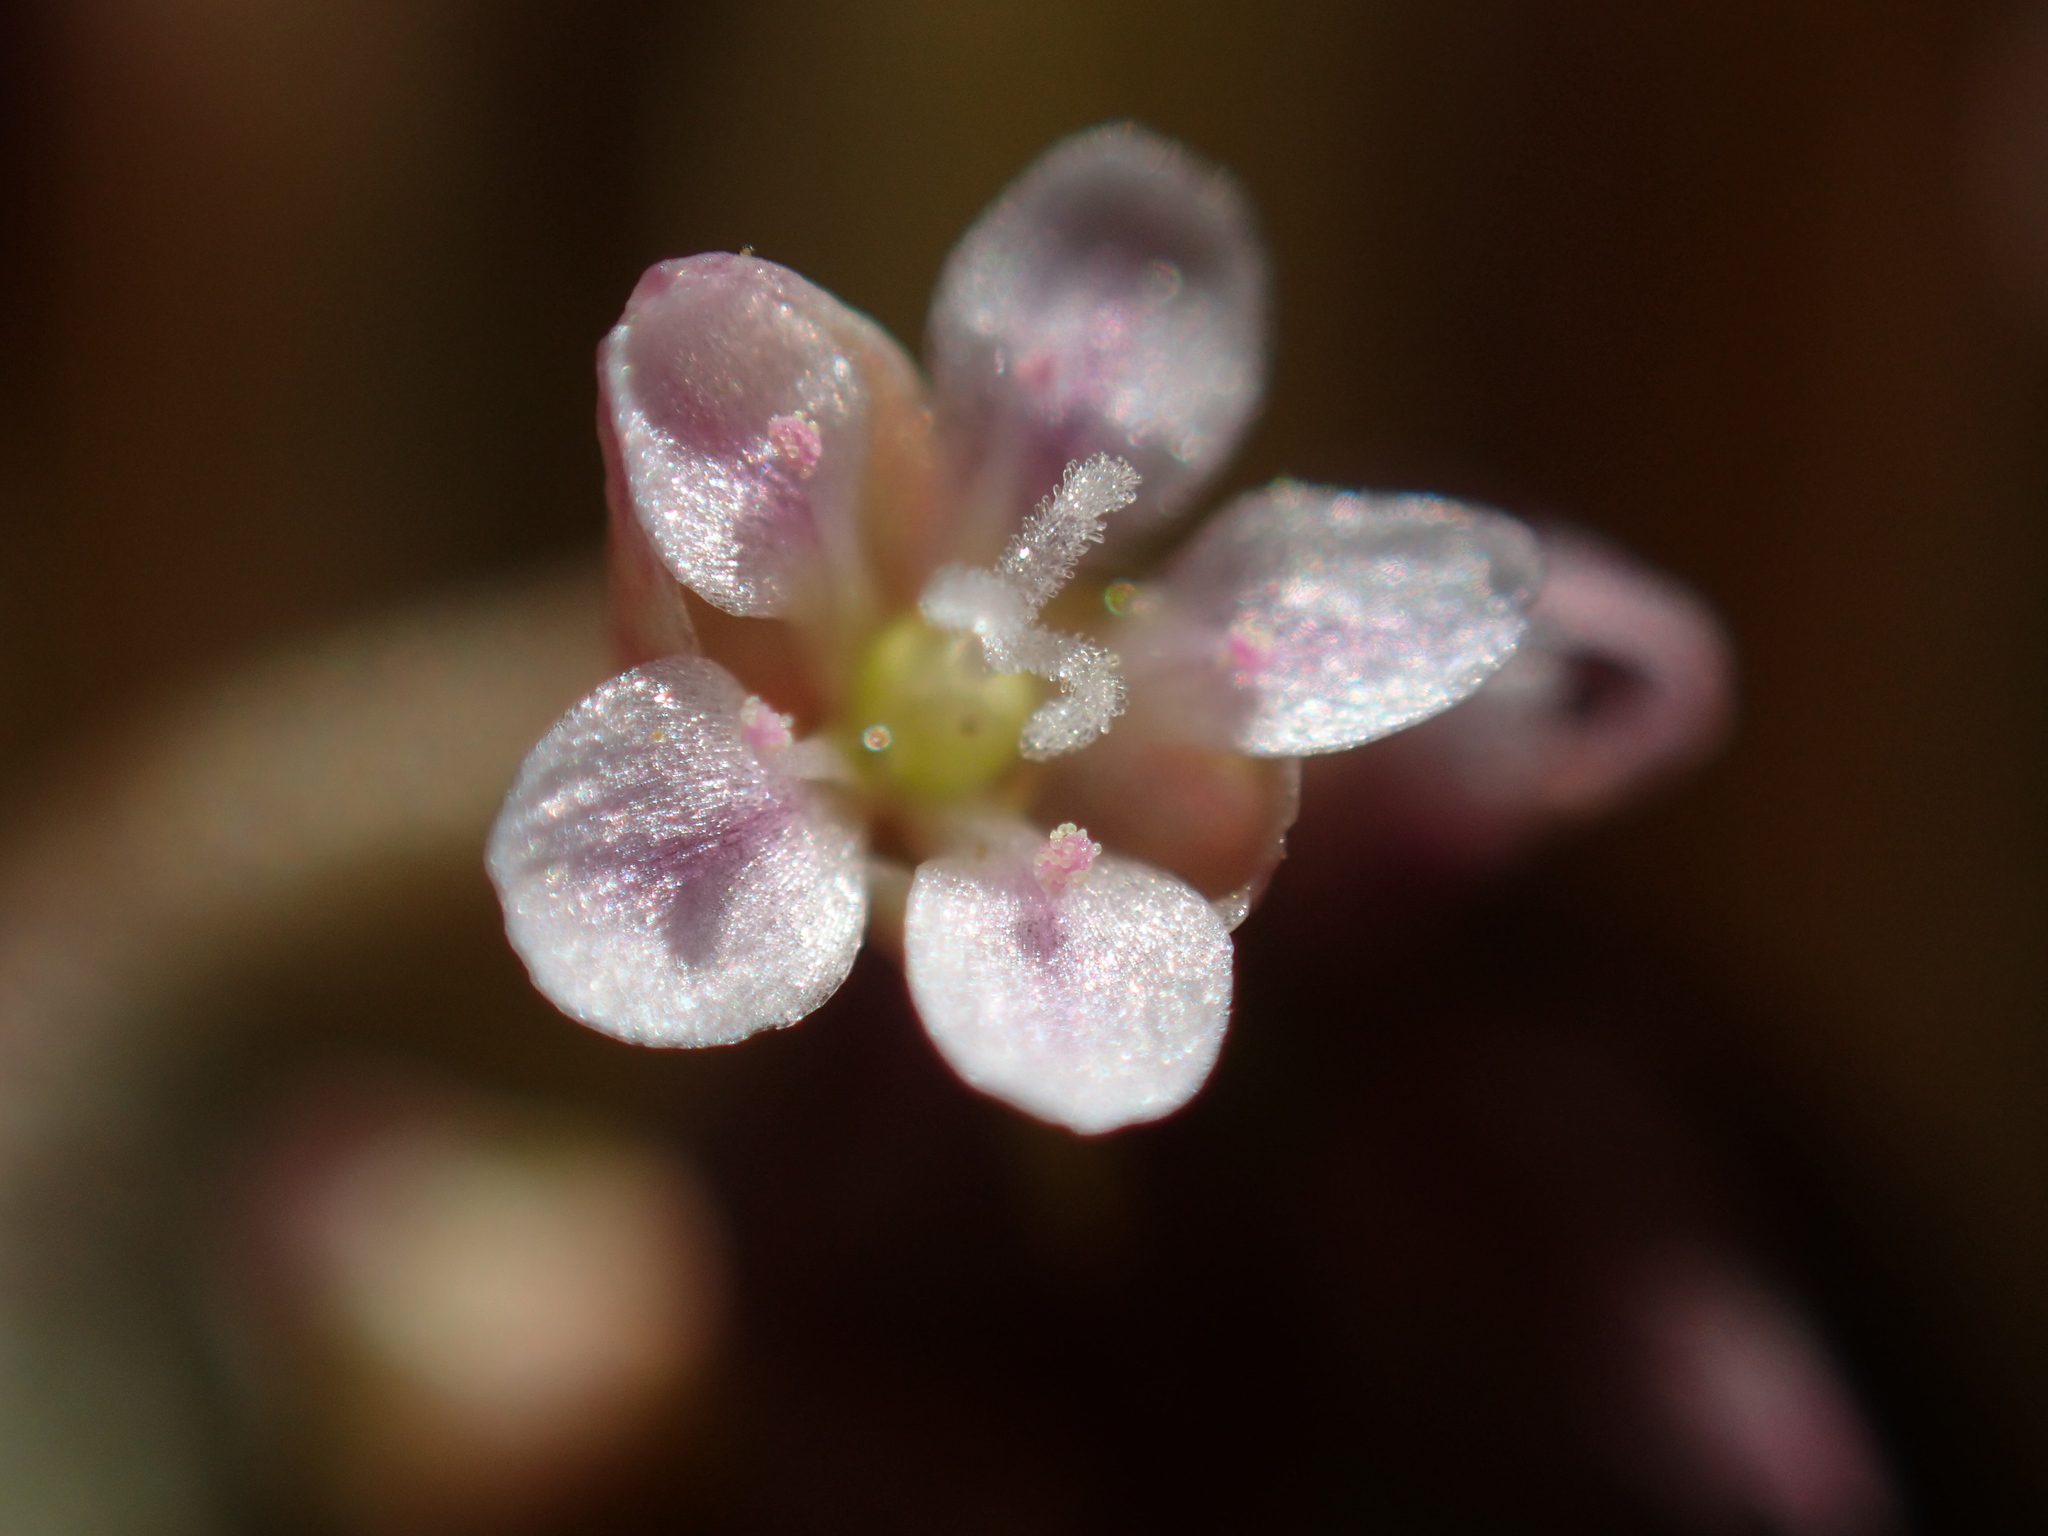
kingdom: Plantae
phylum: Tracheophyta
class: Magnoliopsida
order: Caryophyllales
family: Montiaceae
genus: Claytonia
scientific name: Claytonia exigua
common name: Pale spring beauty
